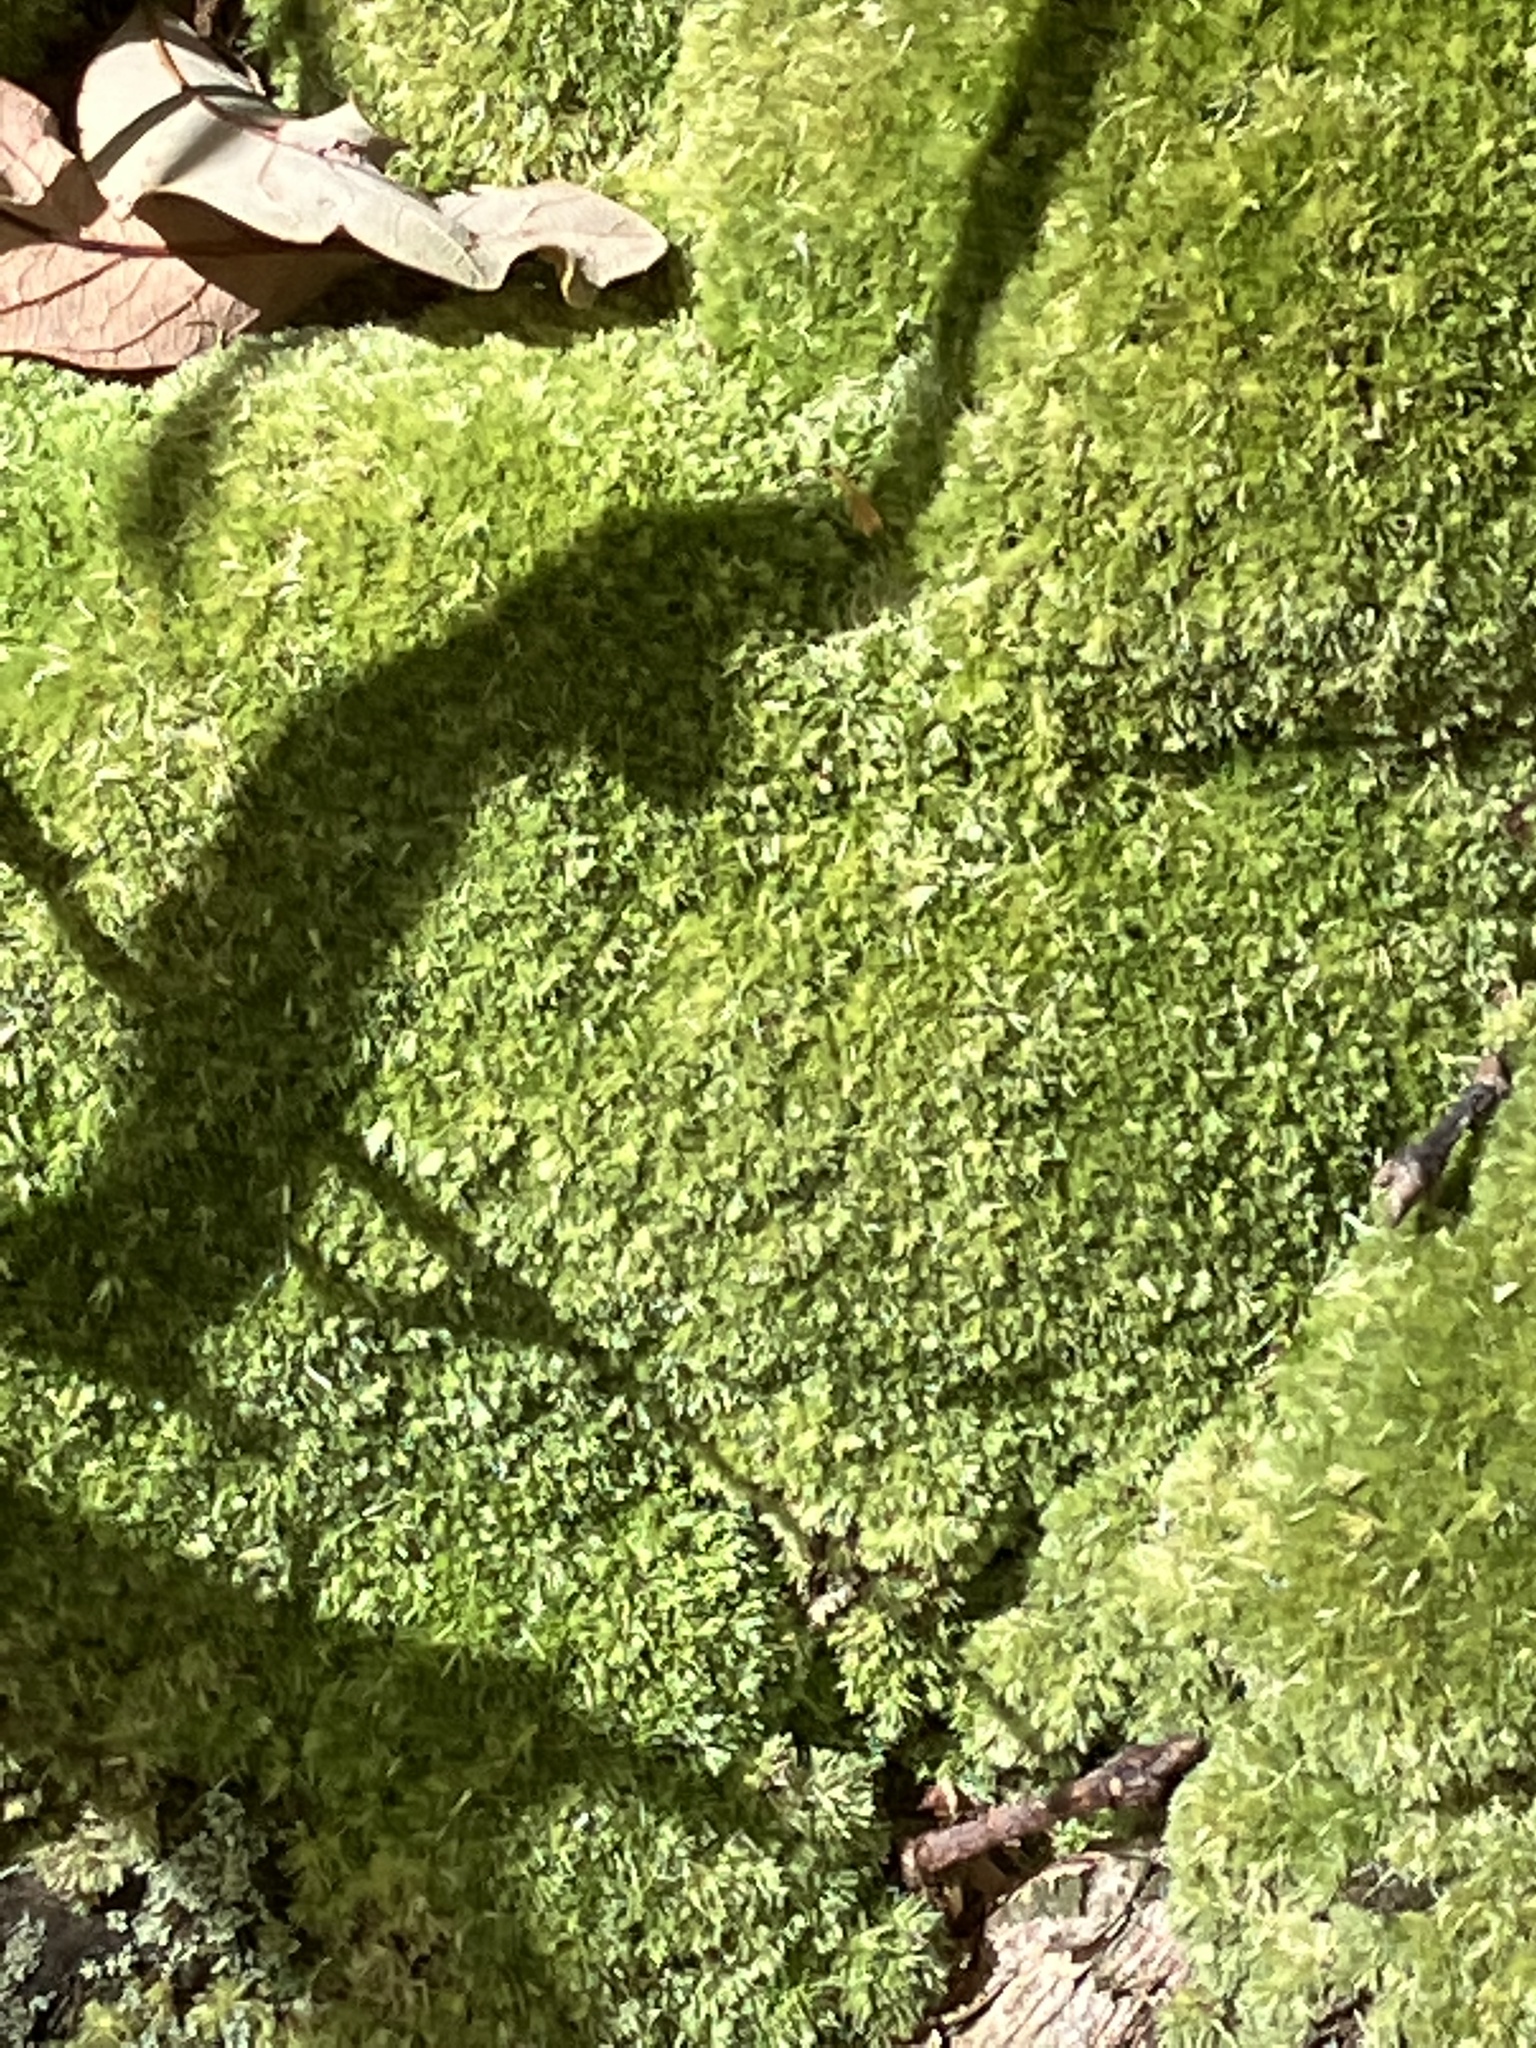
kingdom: Plantae
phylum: Bryophyta
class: Bryopsida
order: Dicranales
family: Leucobryaceae
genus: Leucobryum
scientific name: Leucobryum glaucum
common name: Large white-moss
